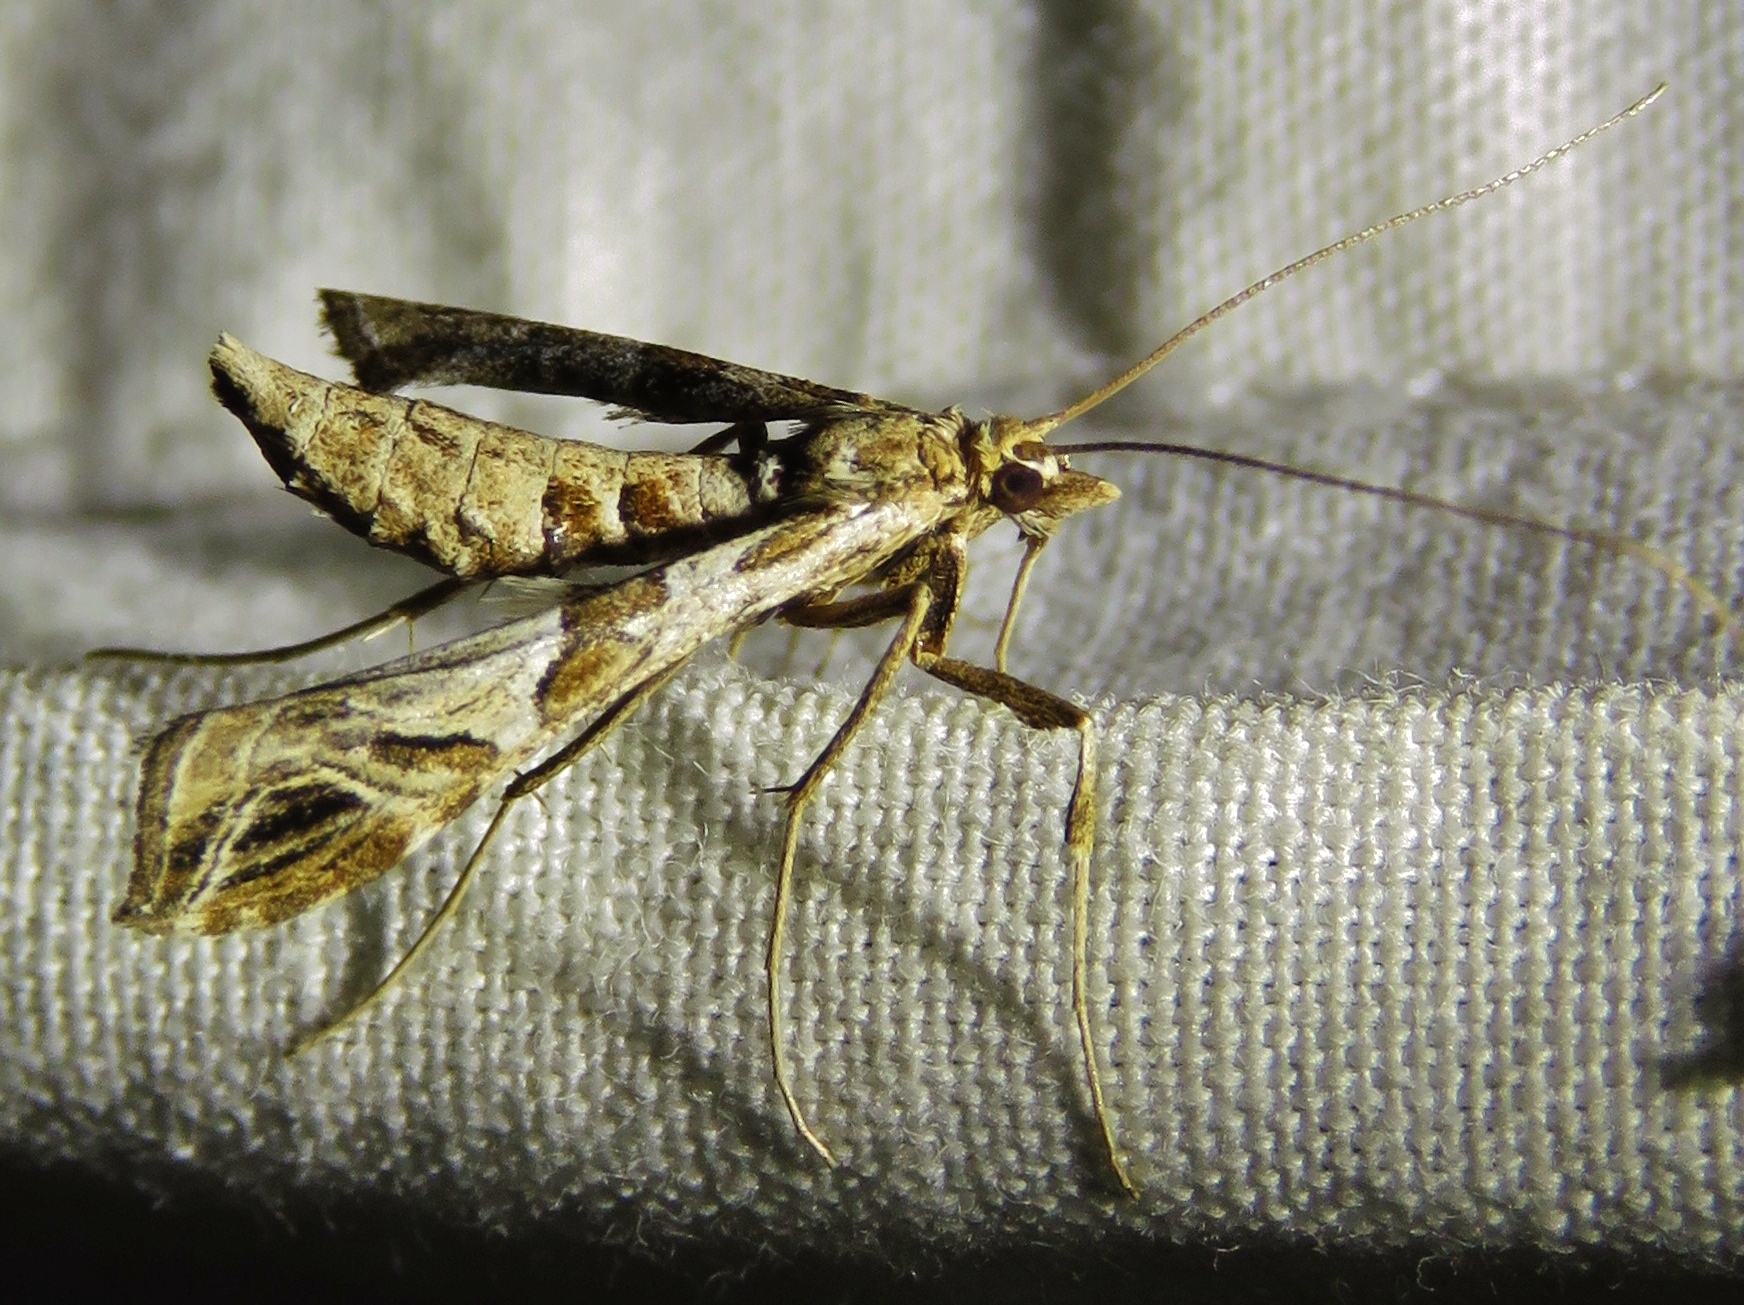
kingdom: Animalia
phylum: Arthropoda
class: Insecta
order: Lepidoptera
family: Crambidae
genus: Lineodes
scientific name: Lineodes interrupta
